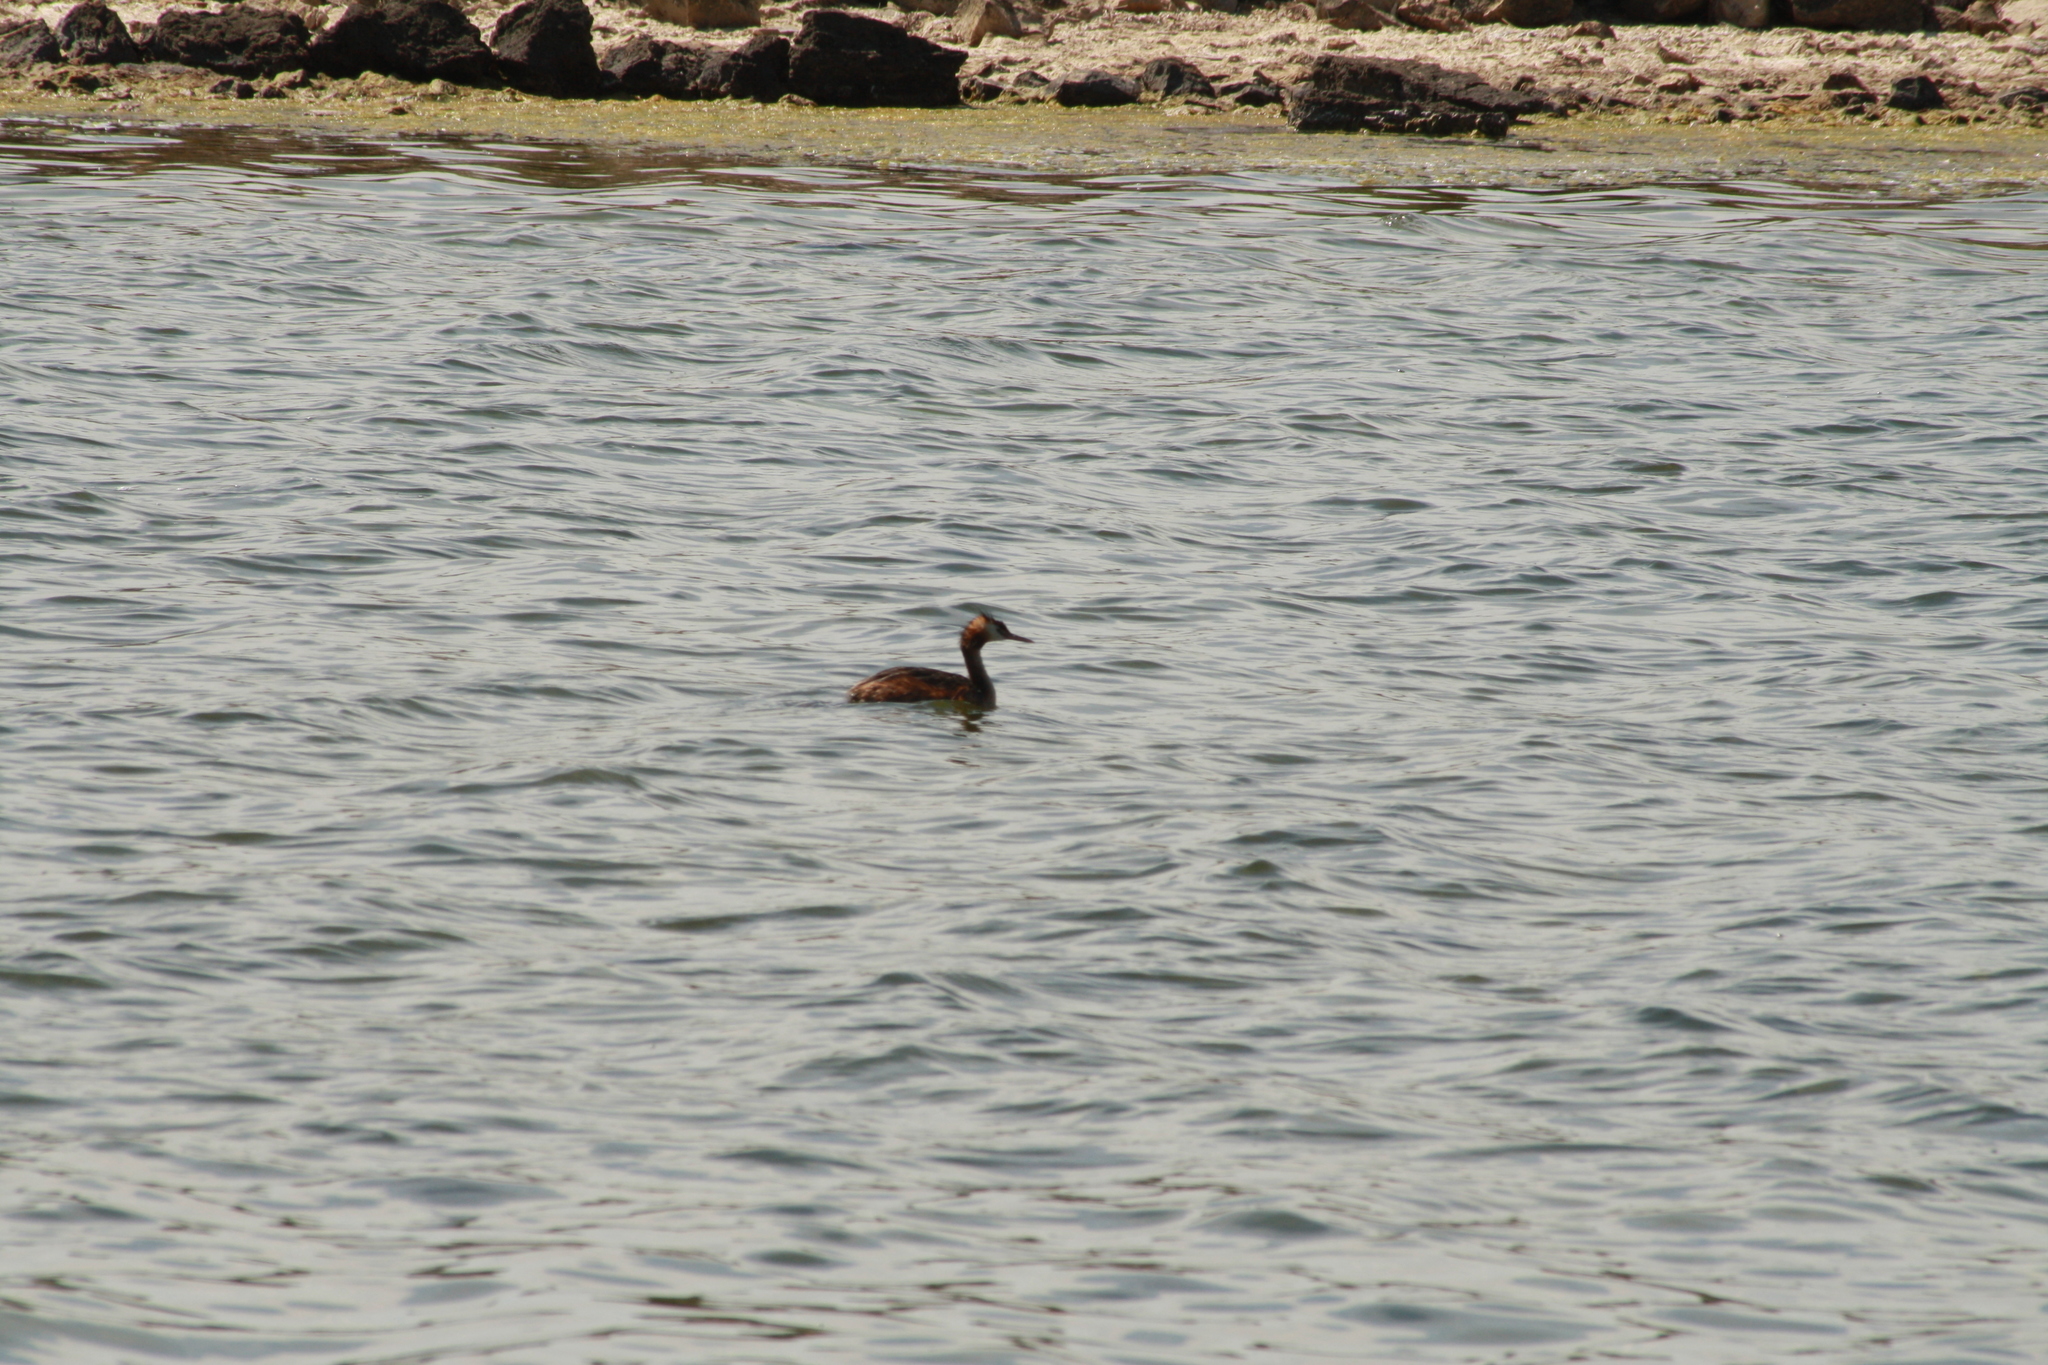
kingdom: Animalia
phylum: Chordata
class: Aves
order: Podicipediformes
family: Podicipedidae
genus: Podiceps
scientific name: Podiceps cristatus
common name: Great crested grebe
